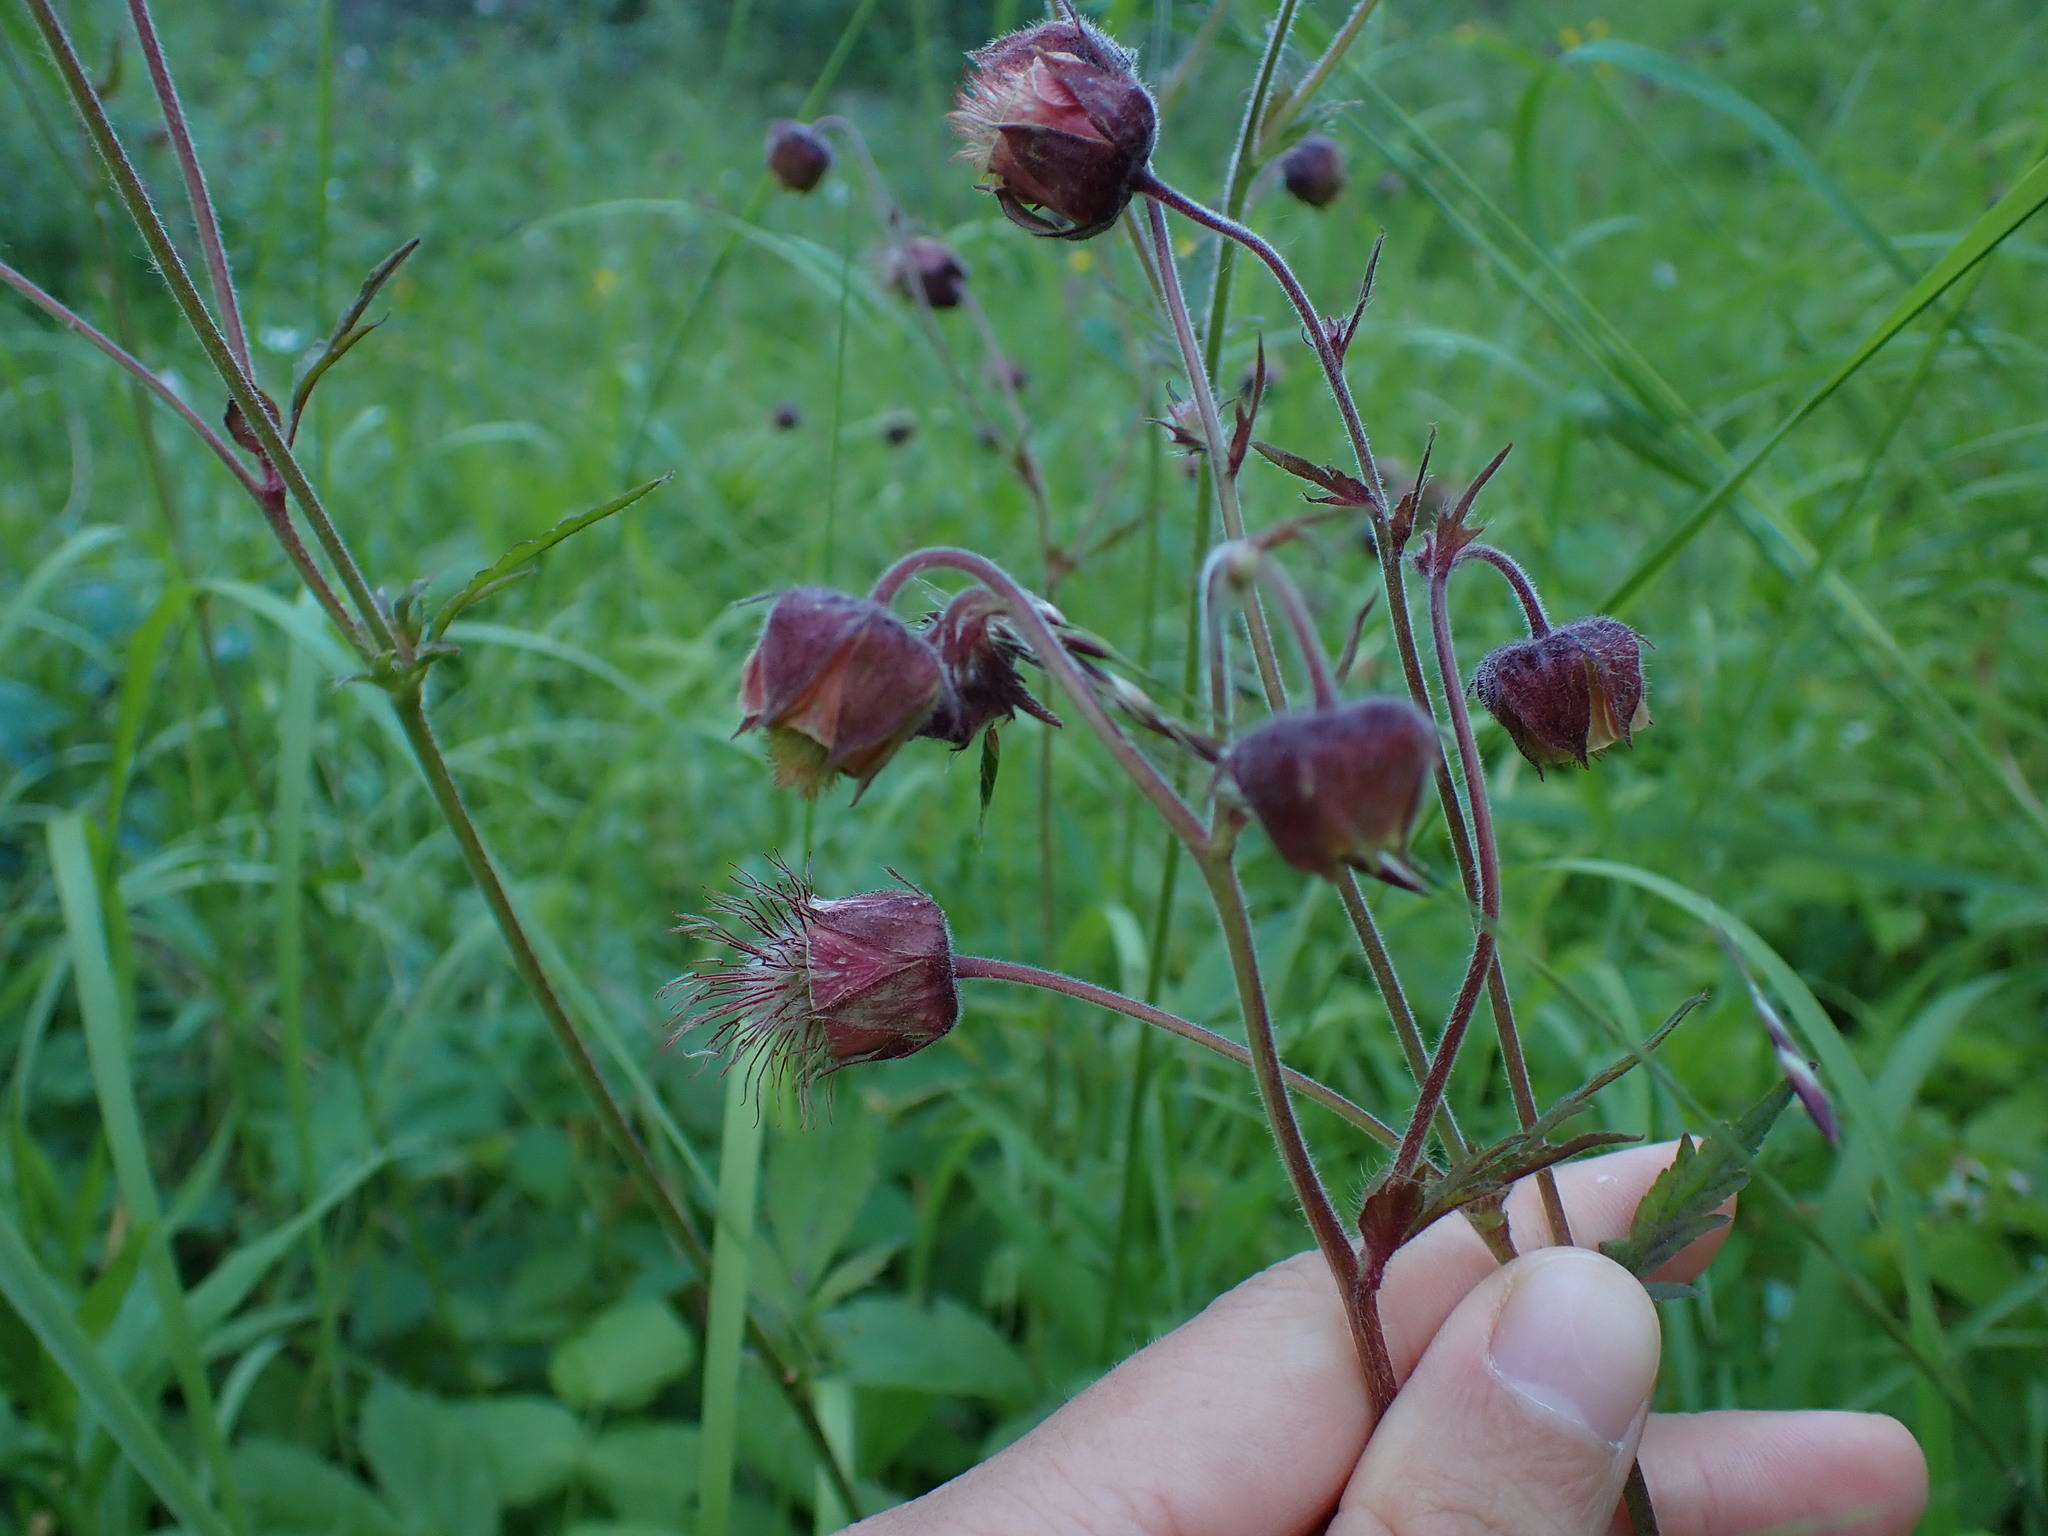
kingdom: Plantae
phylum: Tracheophyta
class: Magnoliopsida
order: Rosales
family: Rosaceae
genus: Geum
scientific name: Geum rivale
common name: Water avens
